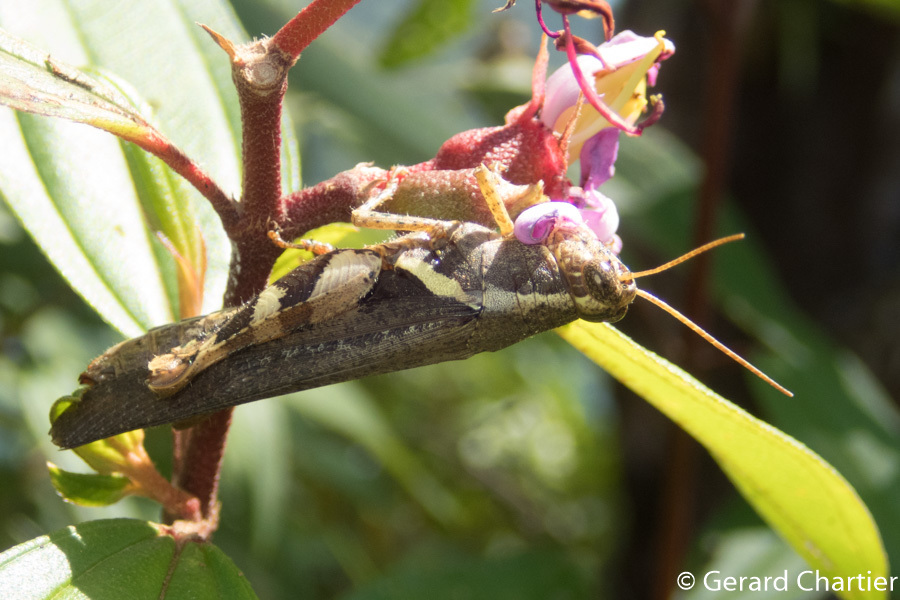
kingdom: Animalia
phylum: Arthropoda
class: Insecta
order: Orthoptera
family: Acrididae
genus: Xenocatantops
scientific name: Xenocatantops humile
